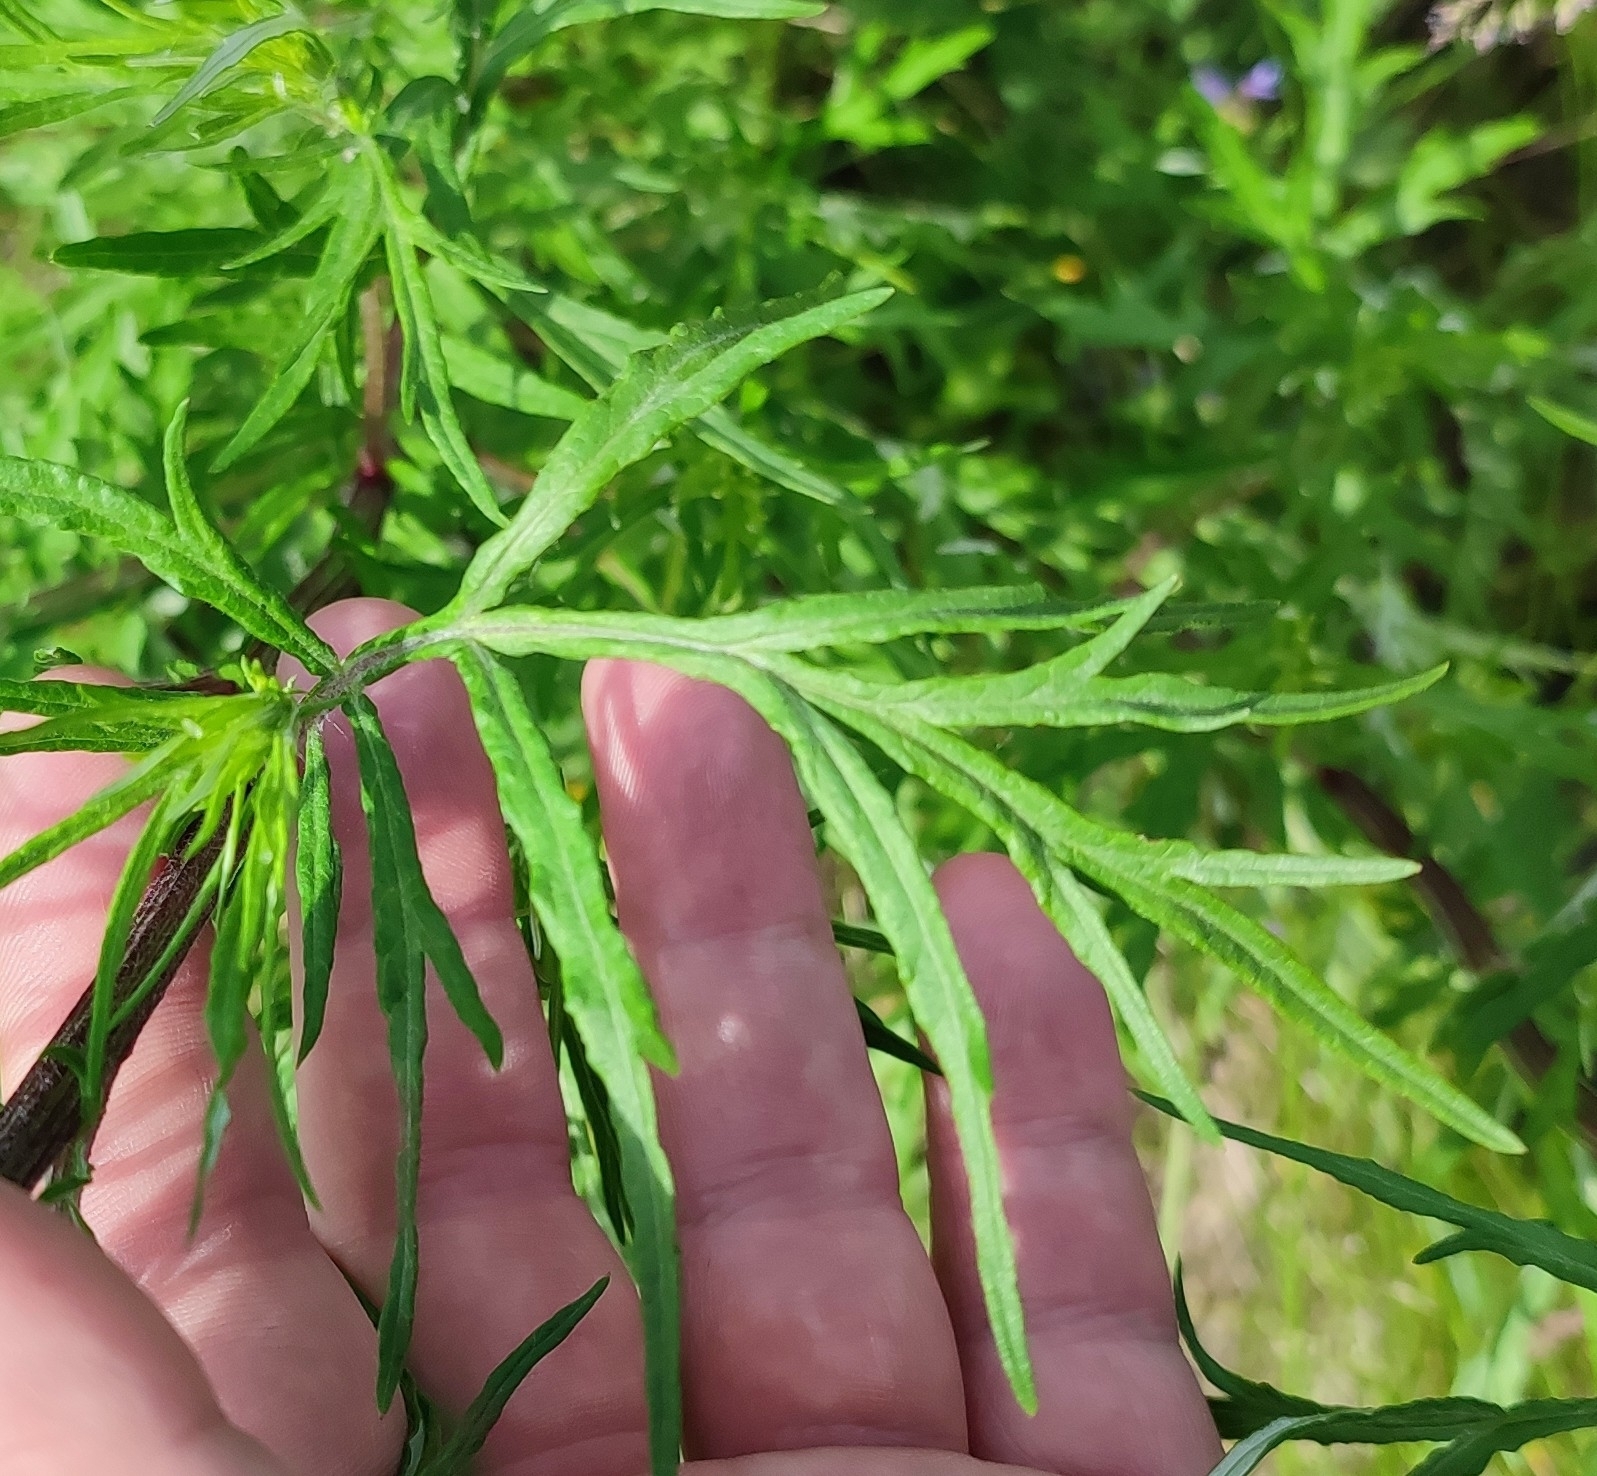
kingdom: Plantae
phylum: Tracheophyta
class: Magnoliopsida
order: Asterales
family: Asteraceae
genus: Artemisia
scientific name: Artemisia vulgaris
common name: Mugwort
